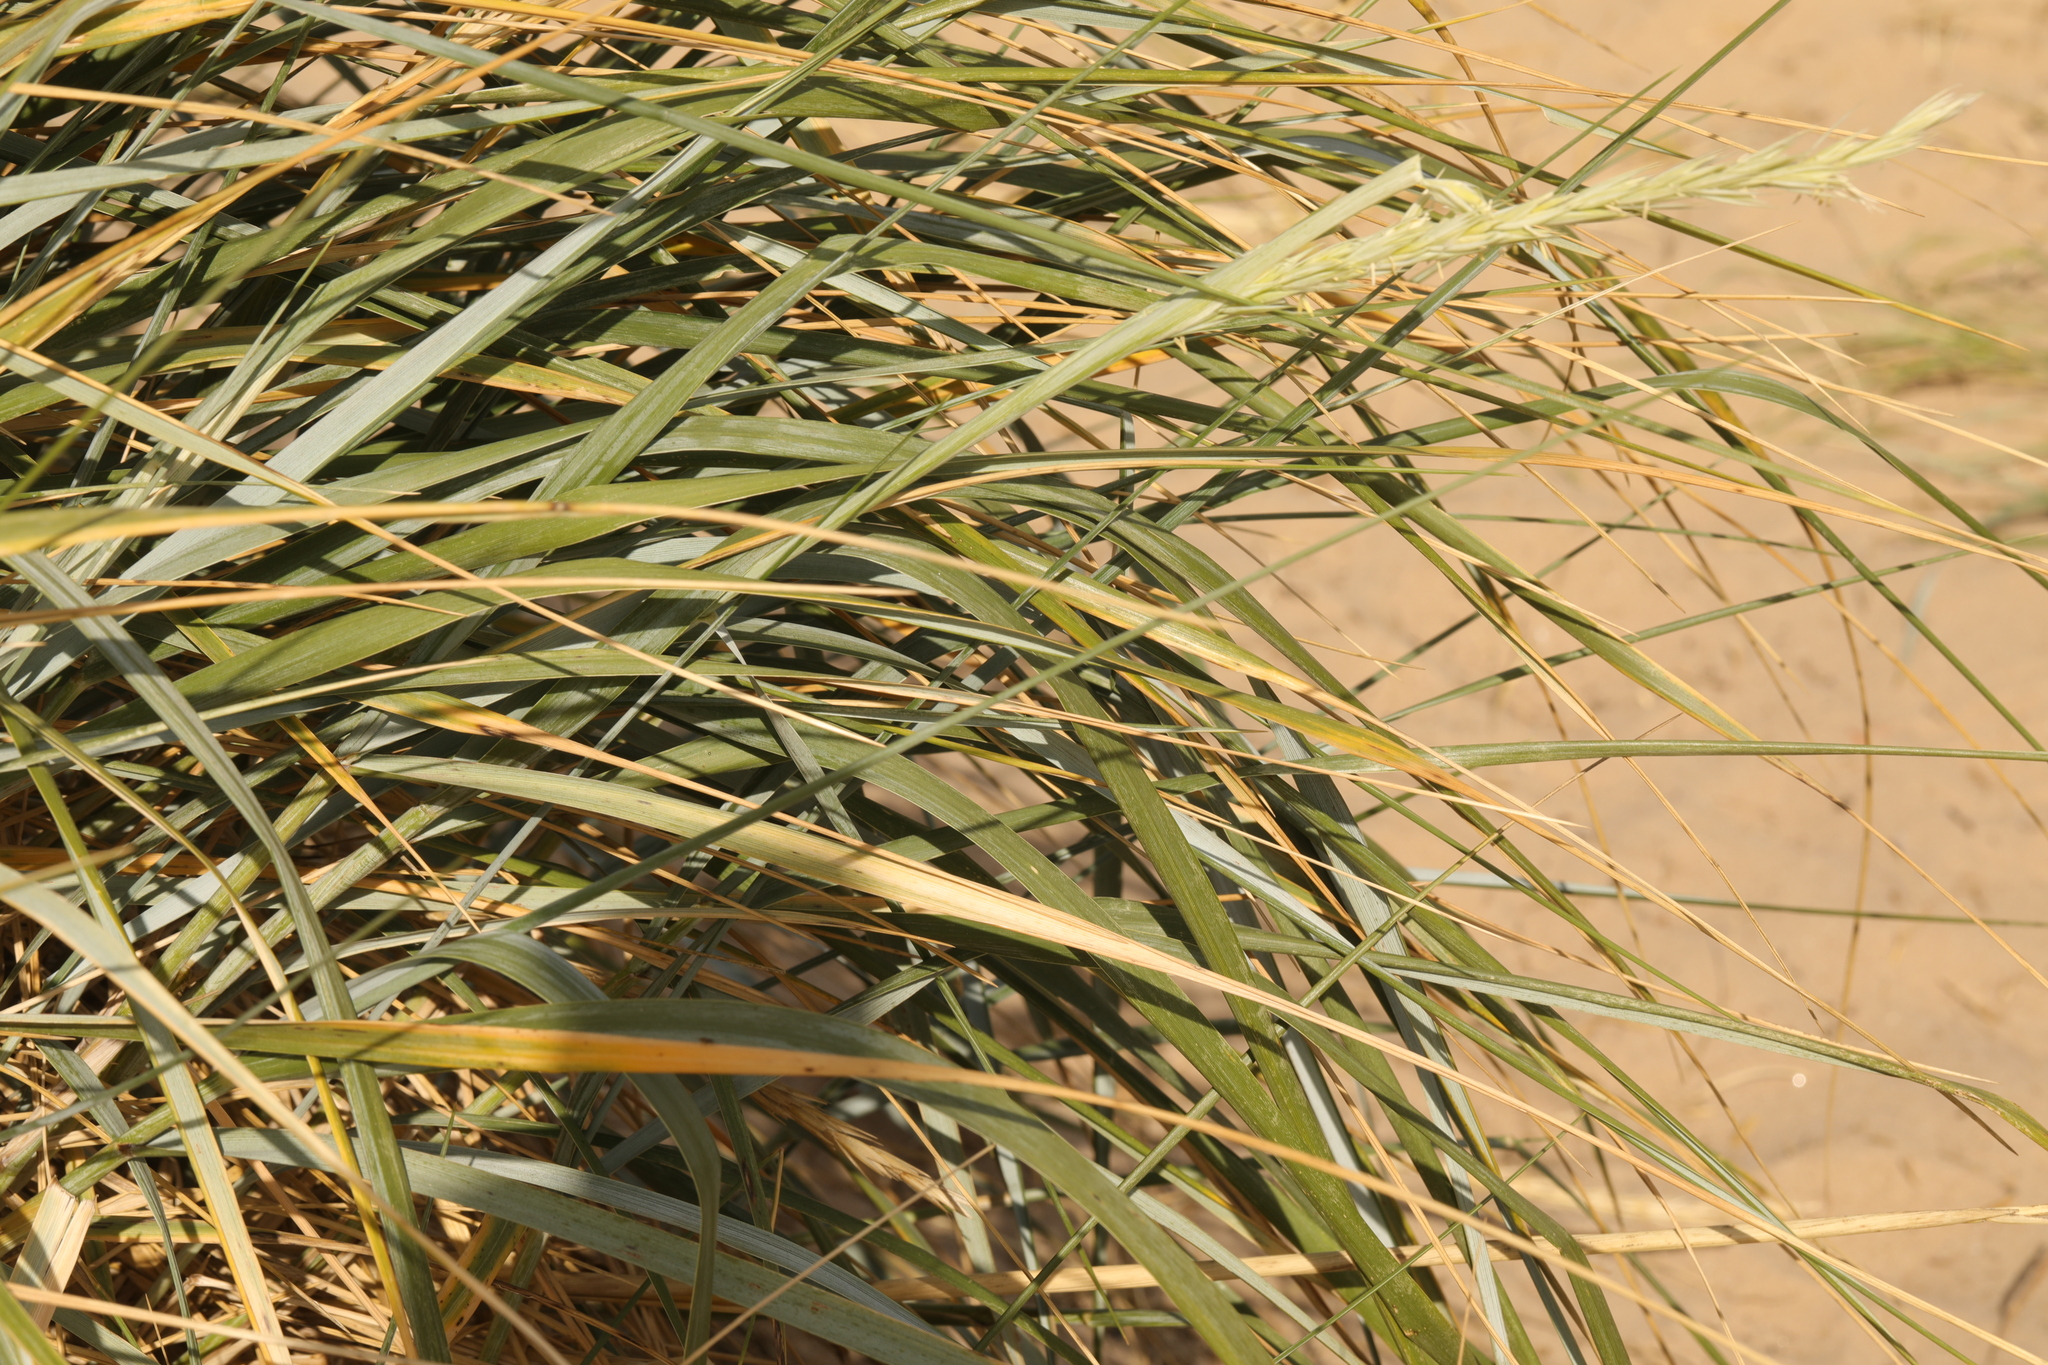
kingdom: Plantae
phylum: Tracheophyta
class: Liliopsida
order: Poales
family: Poaceae
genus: Leymus
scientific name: Leymus arenarius
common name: Lyme-grass
